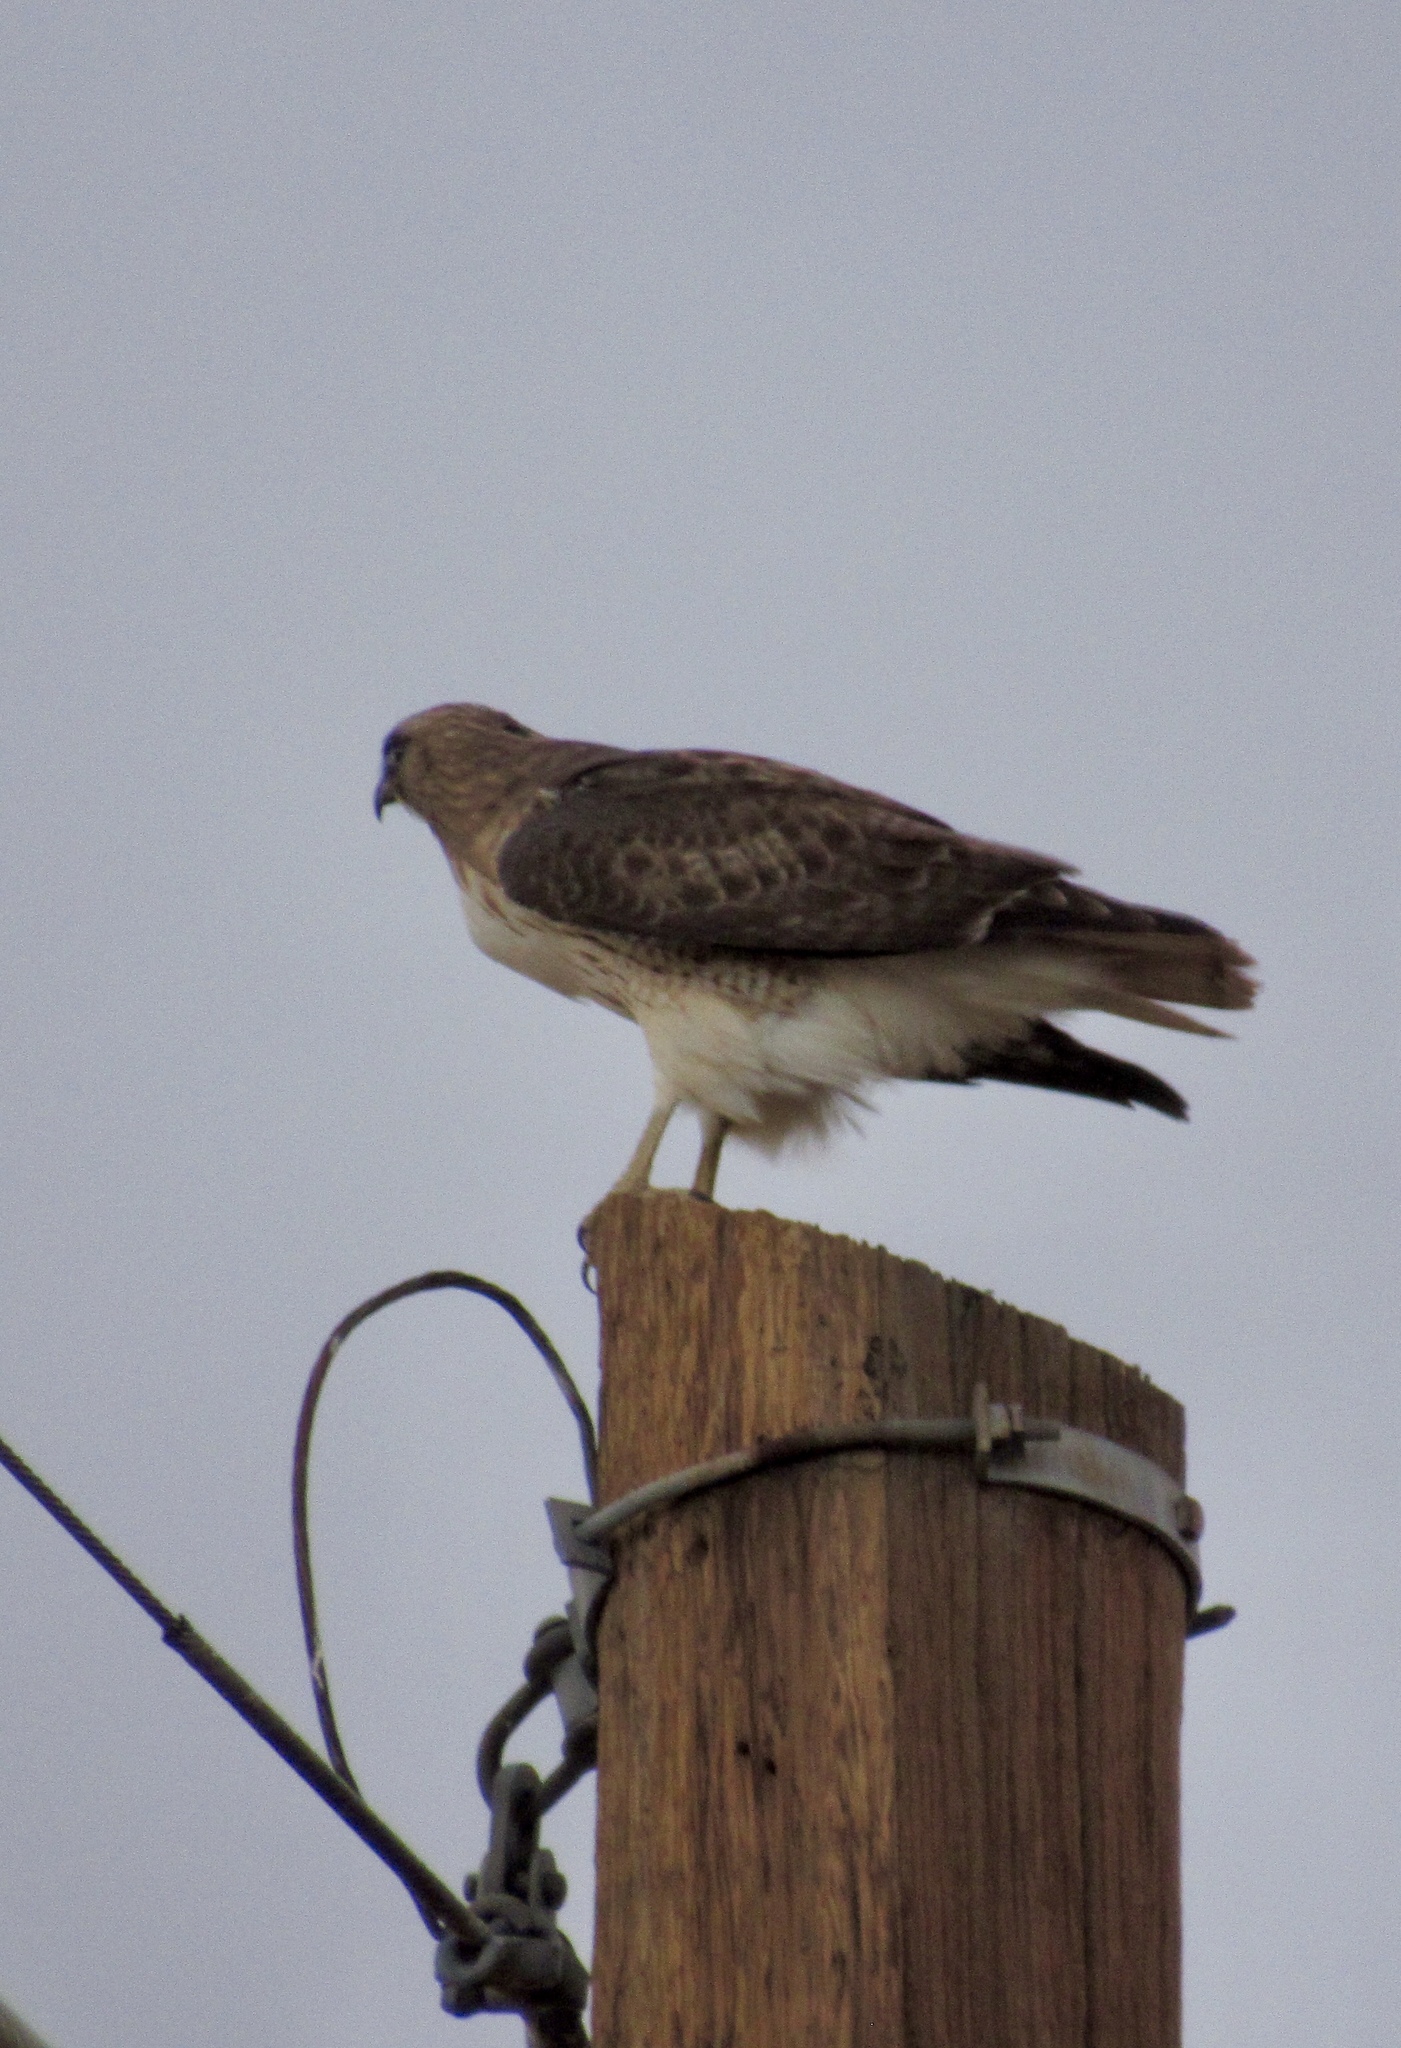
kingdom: Animalia
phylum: Chordata
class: Aves
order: Accipitriformes
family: Accipitridae
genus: Buteo
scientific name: Buteo jamaicensis
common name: Red-tailed hawk
